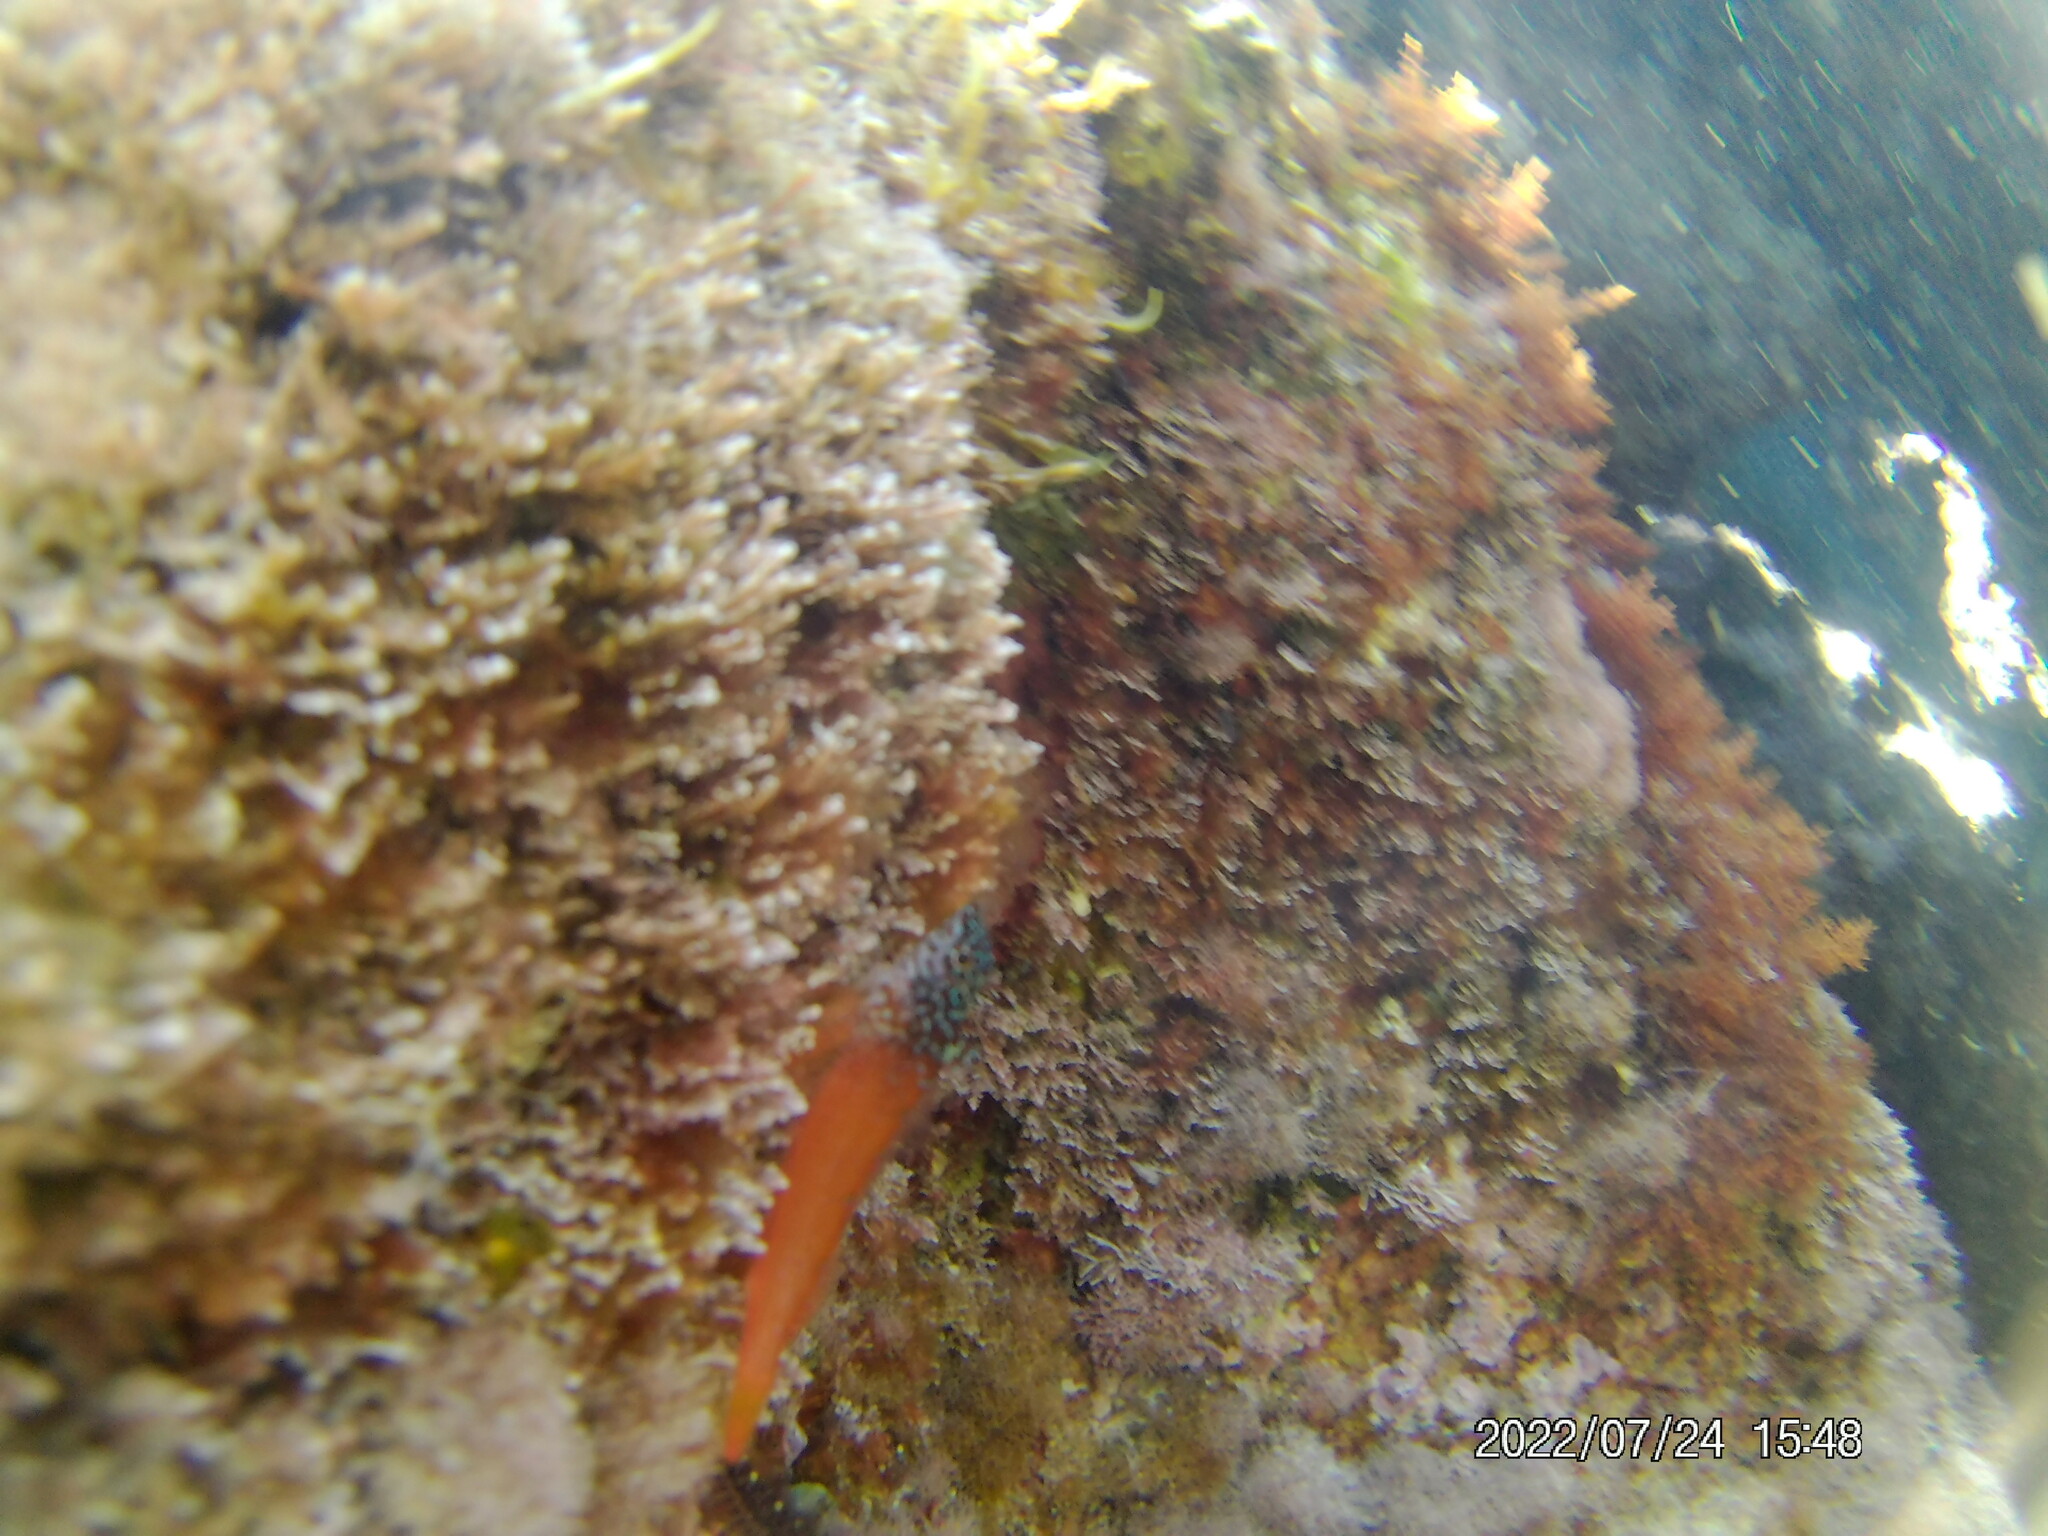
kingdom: Animalia
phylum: Chordata
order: Perciformes
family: Tripterygiidae
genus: Tripterygion
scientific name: Tripterygion melanurum
